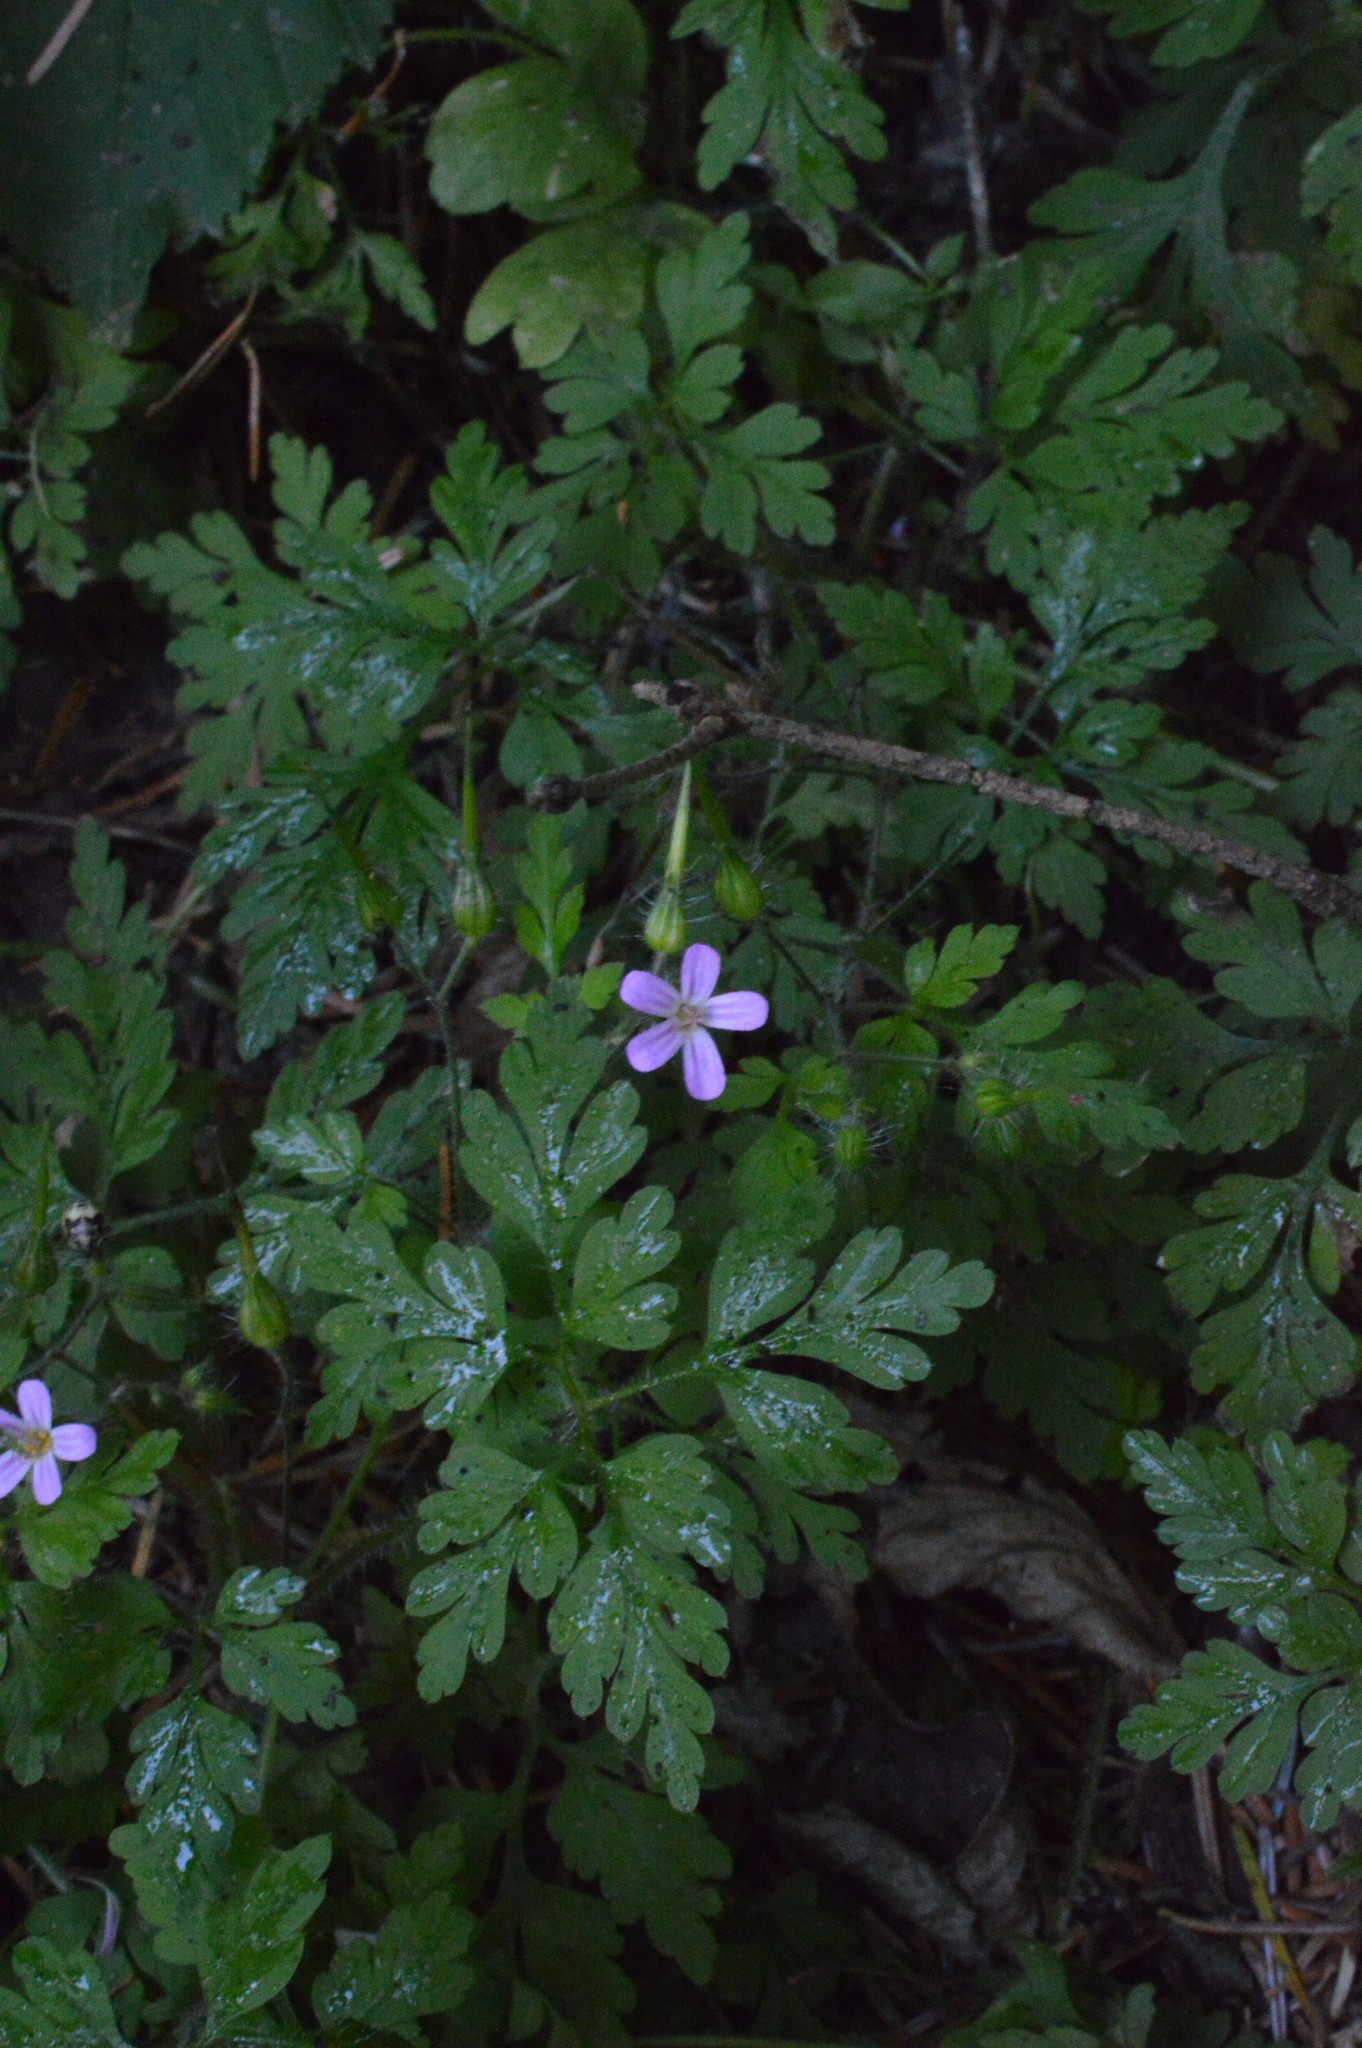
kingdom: Plantae
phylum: Tracheophyta
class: Magnoliopsida
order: Geraniales
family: Geraniaceae
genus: Geranium
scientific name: Geranium robertianum
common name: Herb-robert
